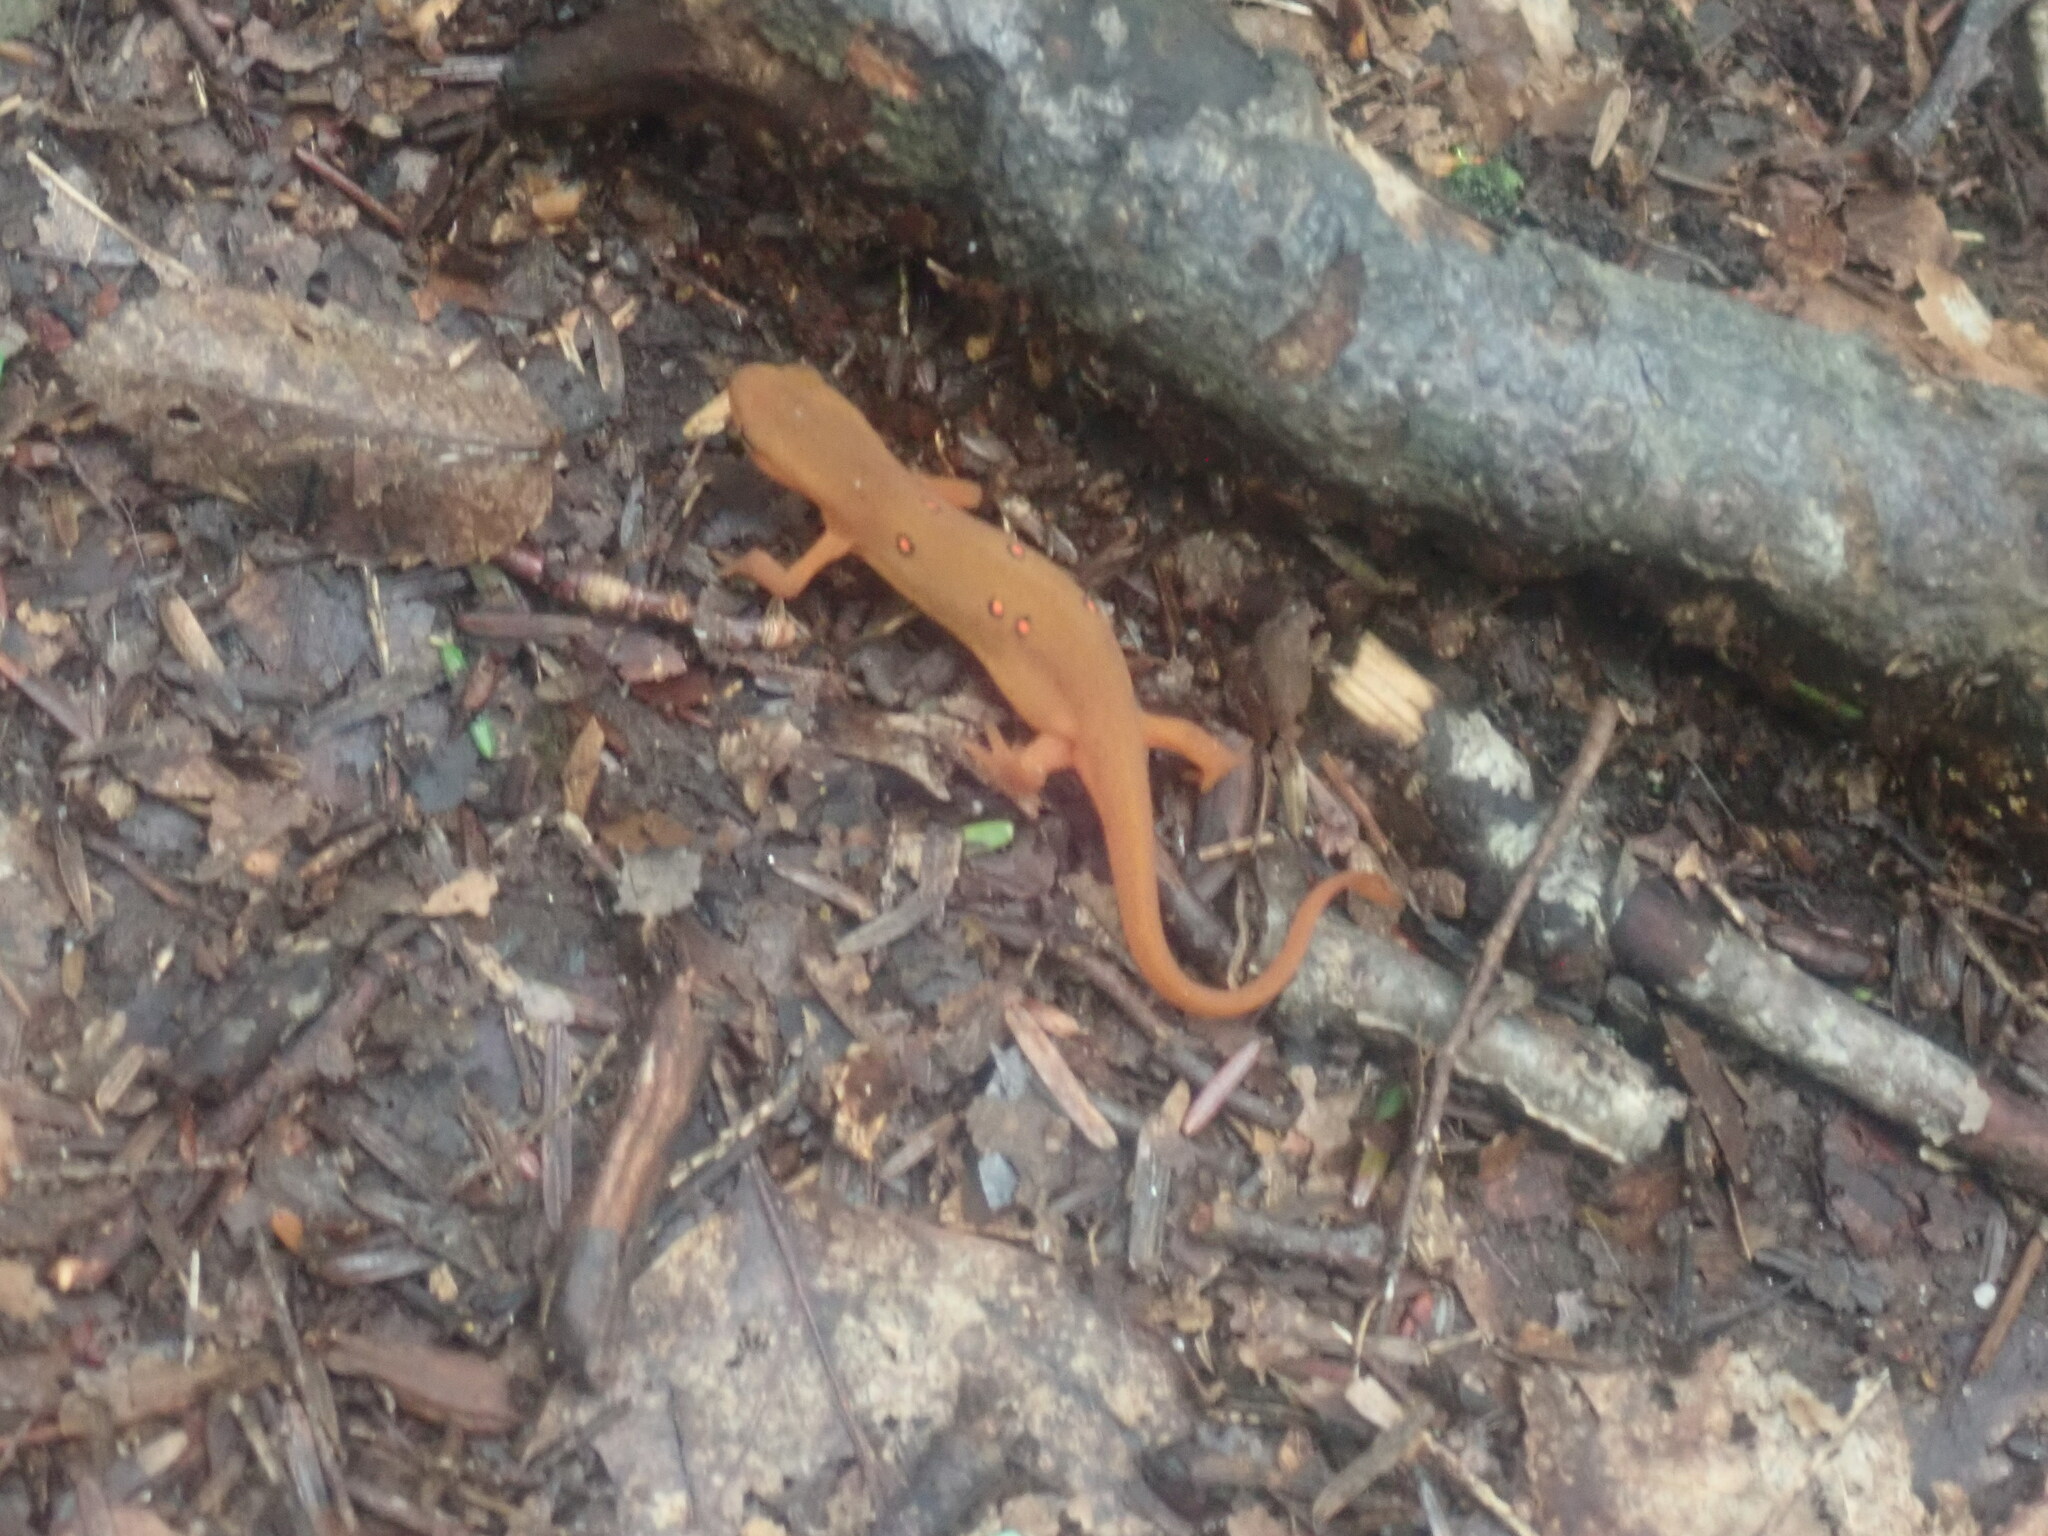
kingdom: Animalia
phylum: Chordata
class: Amphibia
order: Caudata
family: Salamandridae
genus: Notophthalmus
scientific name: Notophthalmus viridescens
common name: Eastern newt
